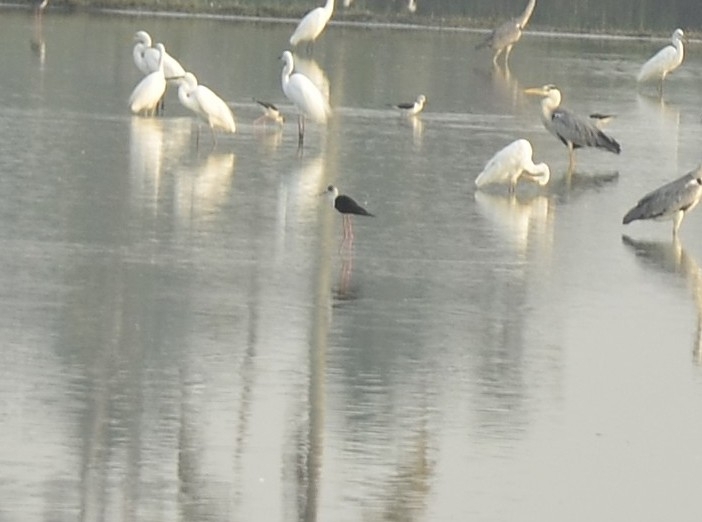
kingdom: Animalia
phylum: Chordata
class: Aves
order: Charadriiformes
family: Recurvirostridae
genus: Himantopus
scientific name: Himantopus himantopus
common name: Black-winged stilt
